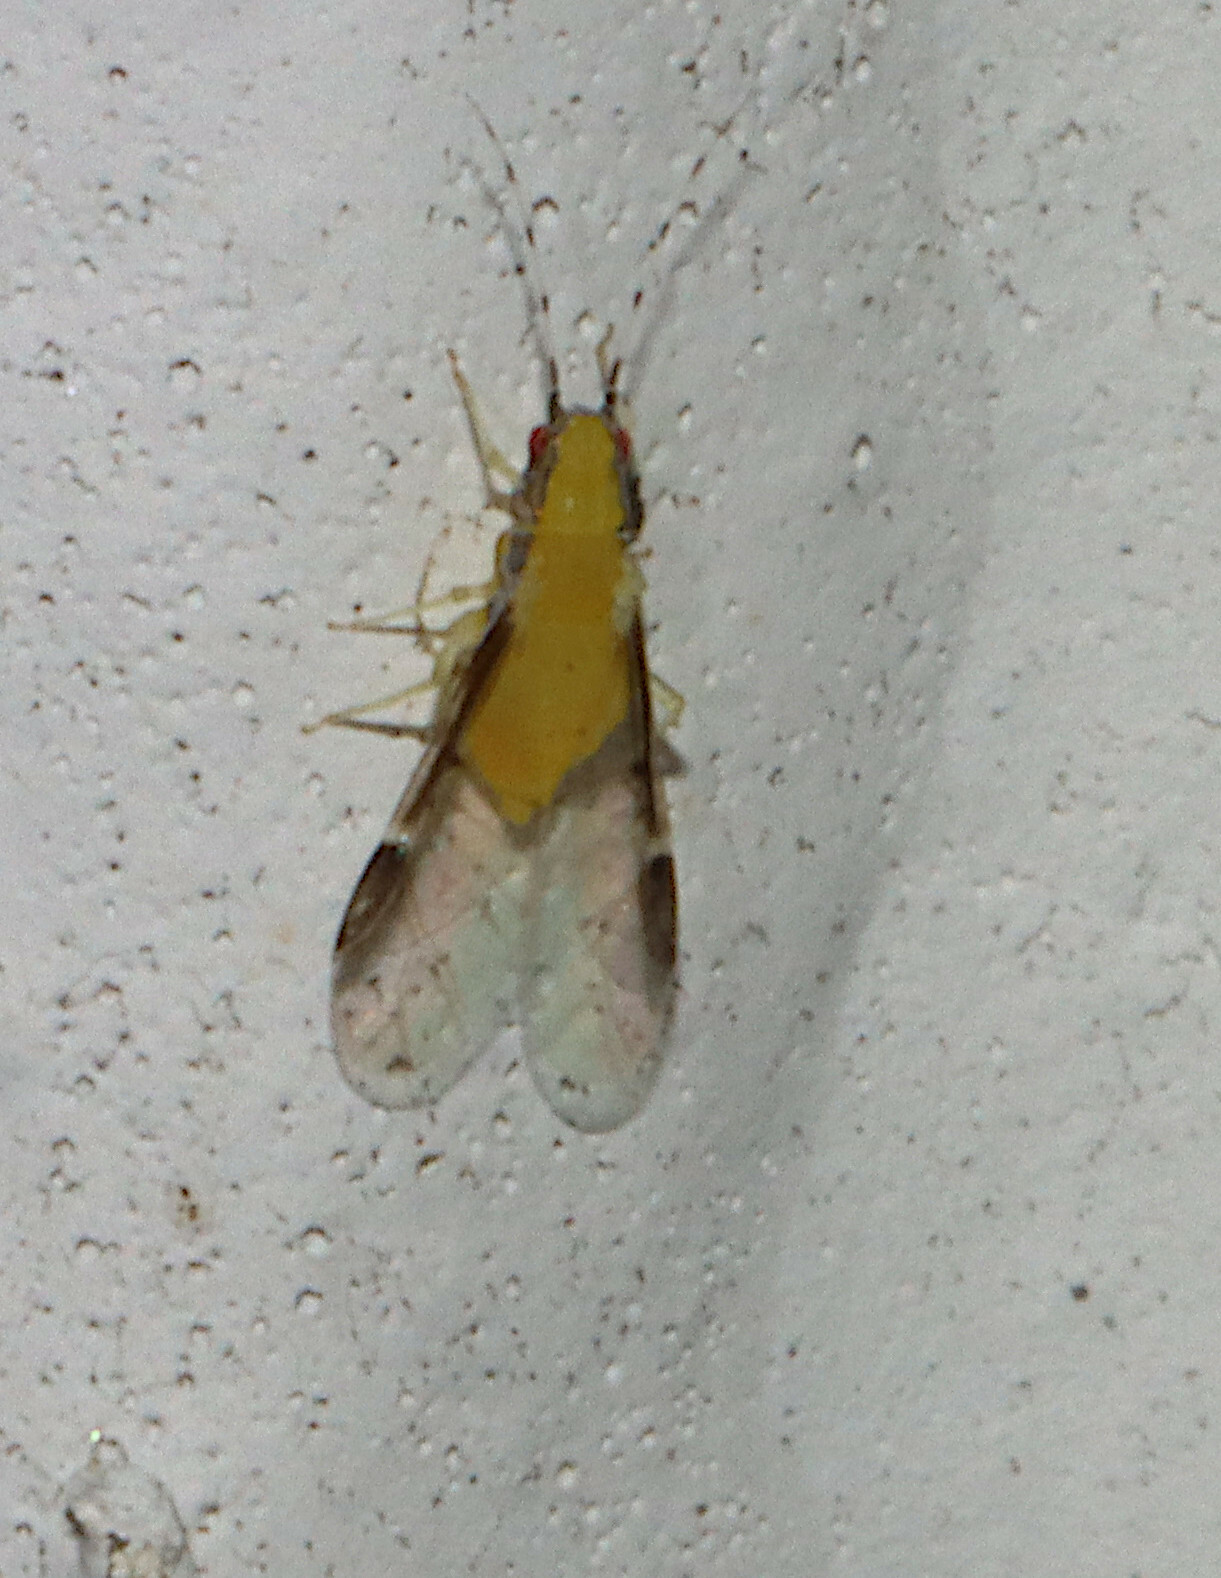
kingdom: Animalia
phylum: Arthropoda
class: Insecta
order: Hemiptera
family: Aphididae
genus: Monellia
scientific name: Monellia caryella
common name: Blackmargined aphid
